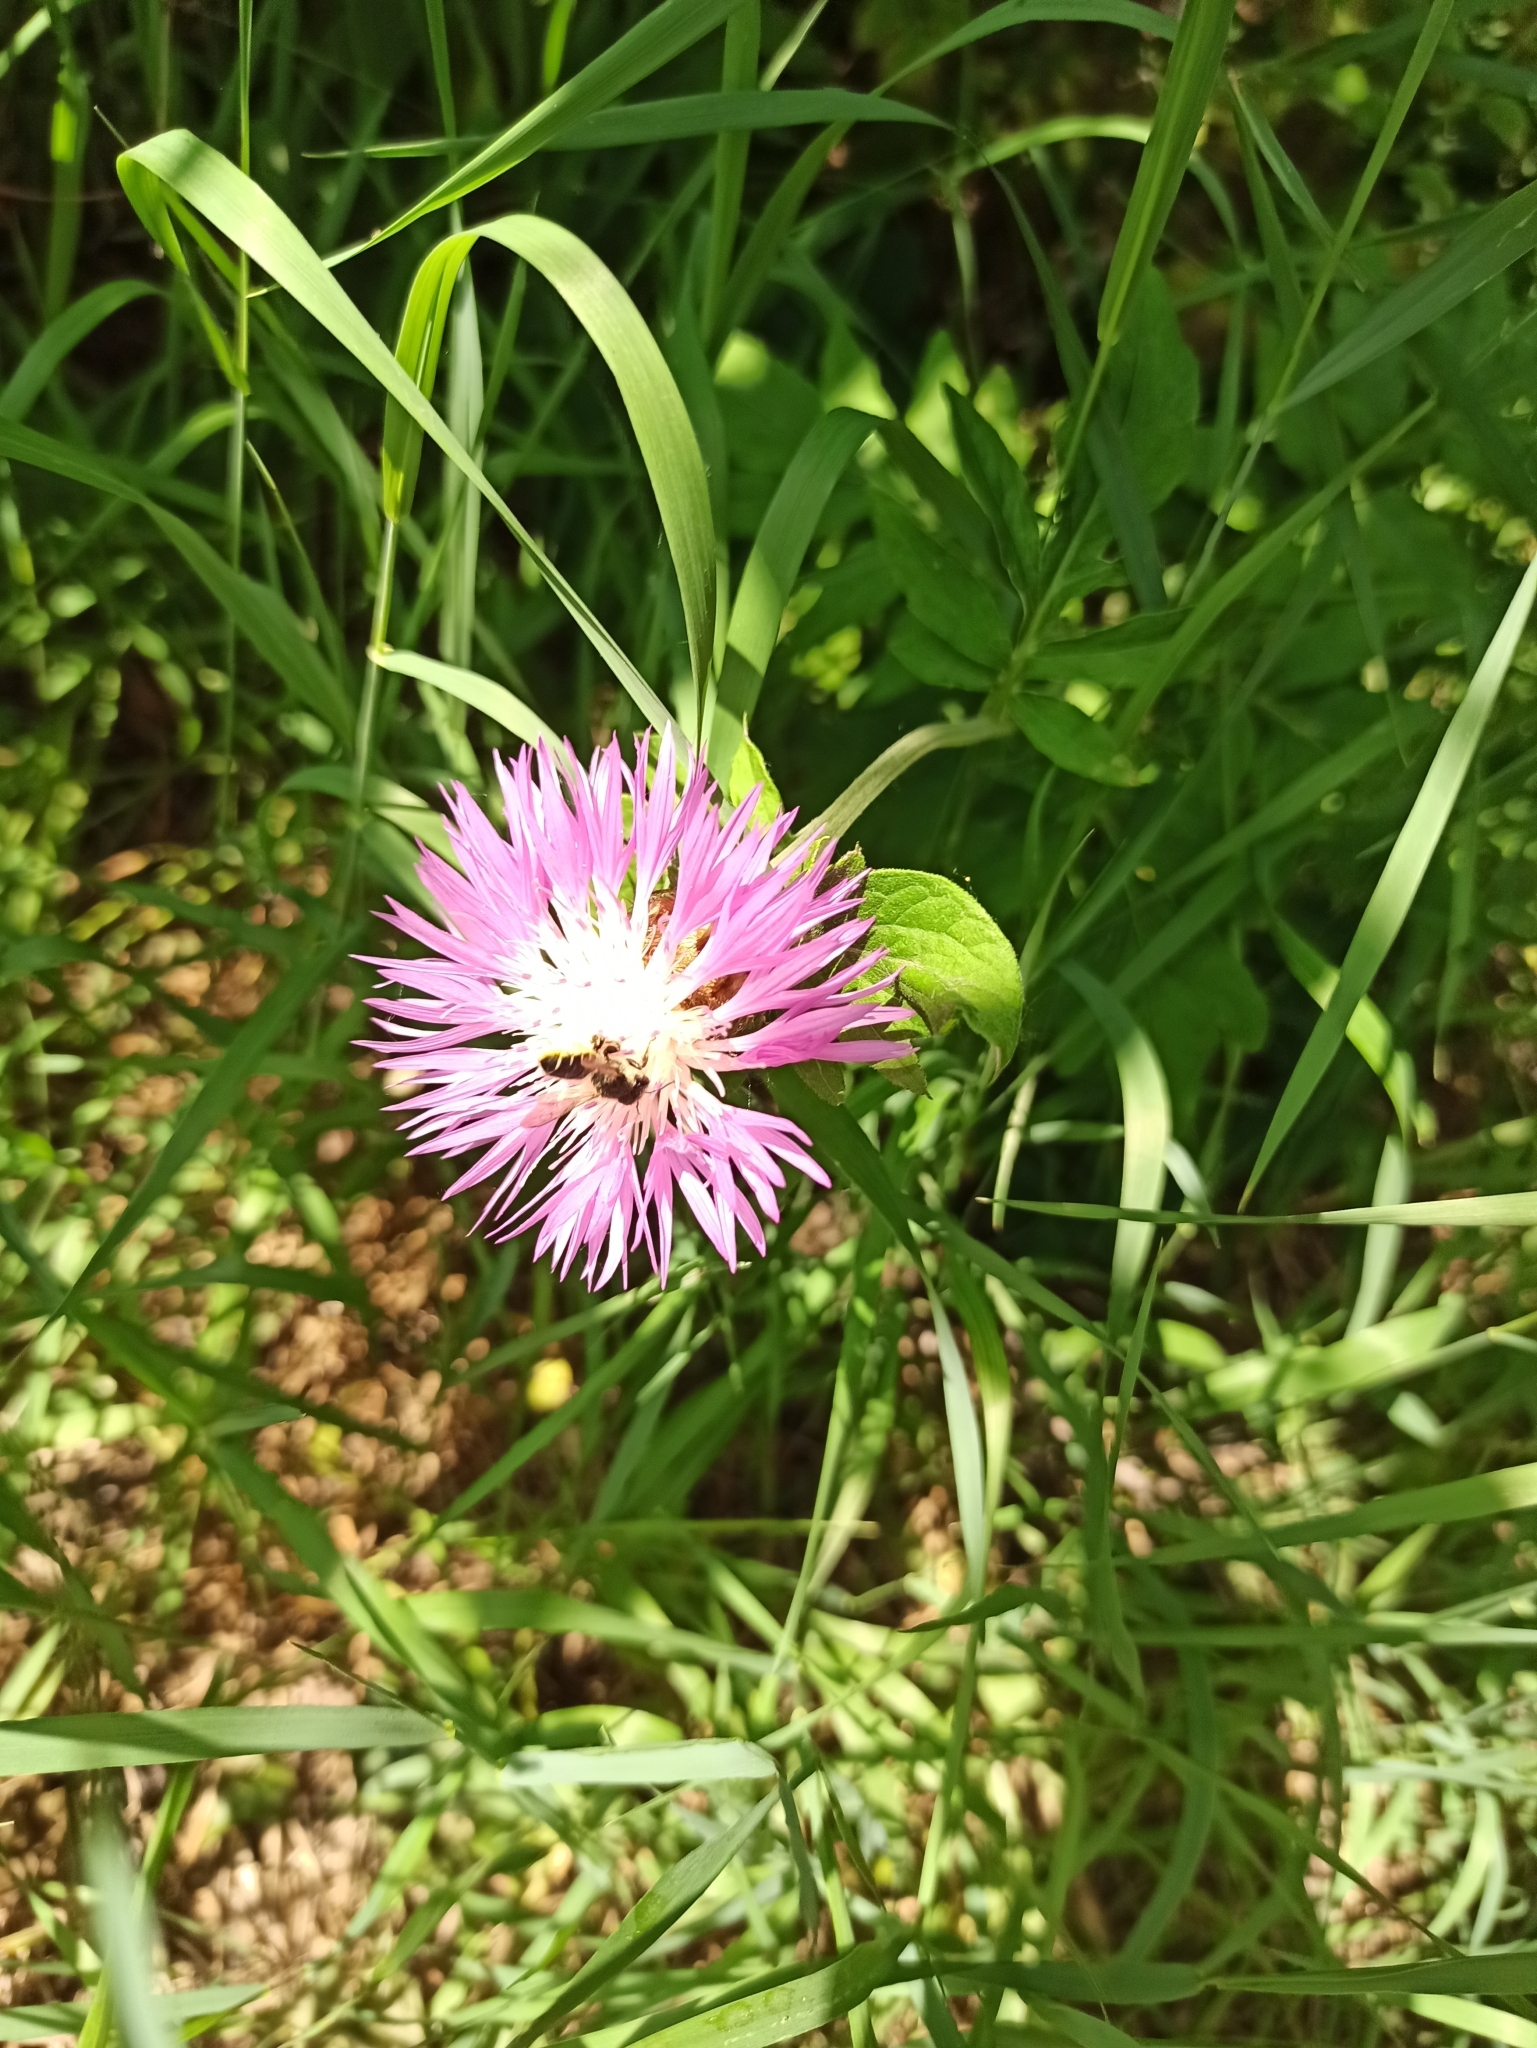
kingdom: Plantae
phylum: Tracheophyta
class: Magnoliopsida
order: Asterales
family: Asteraceae
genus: Psephellus
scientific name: Psephellus dealbatus
